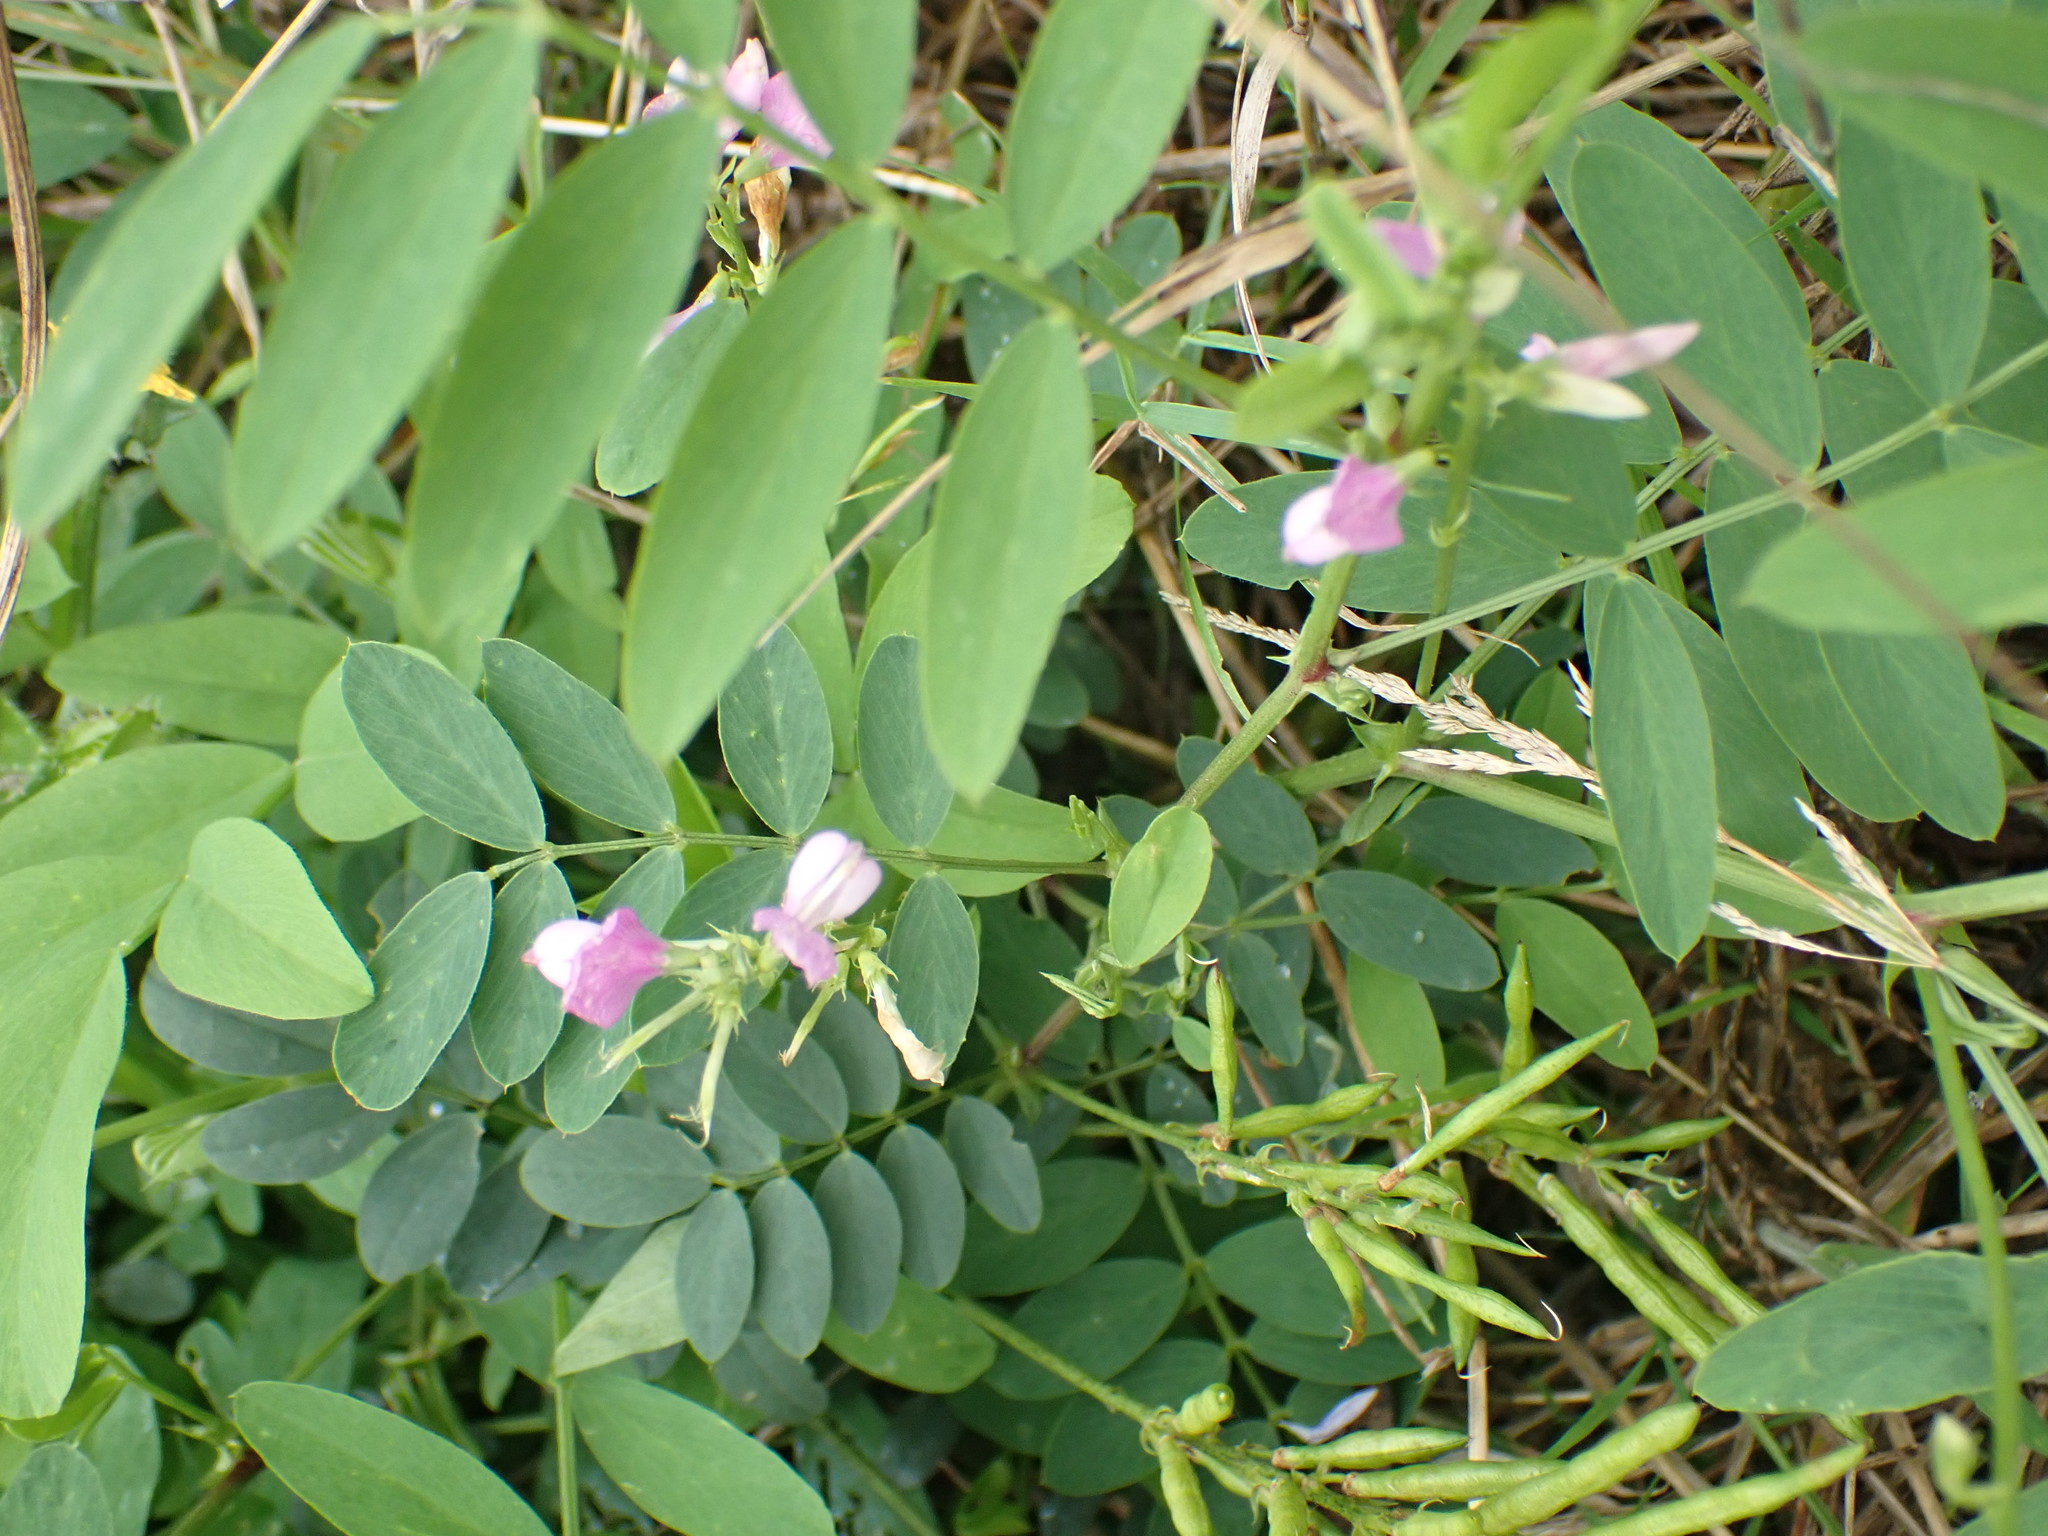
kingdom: Plantae
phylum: Tracheophyta
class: Magnoliopsida
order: Fabales
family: Fabaceae
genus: Galega
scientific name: Galega officinalis
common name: Goat's-rue
